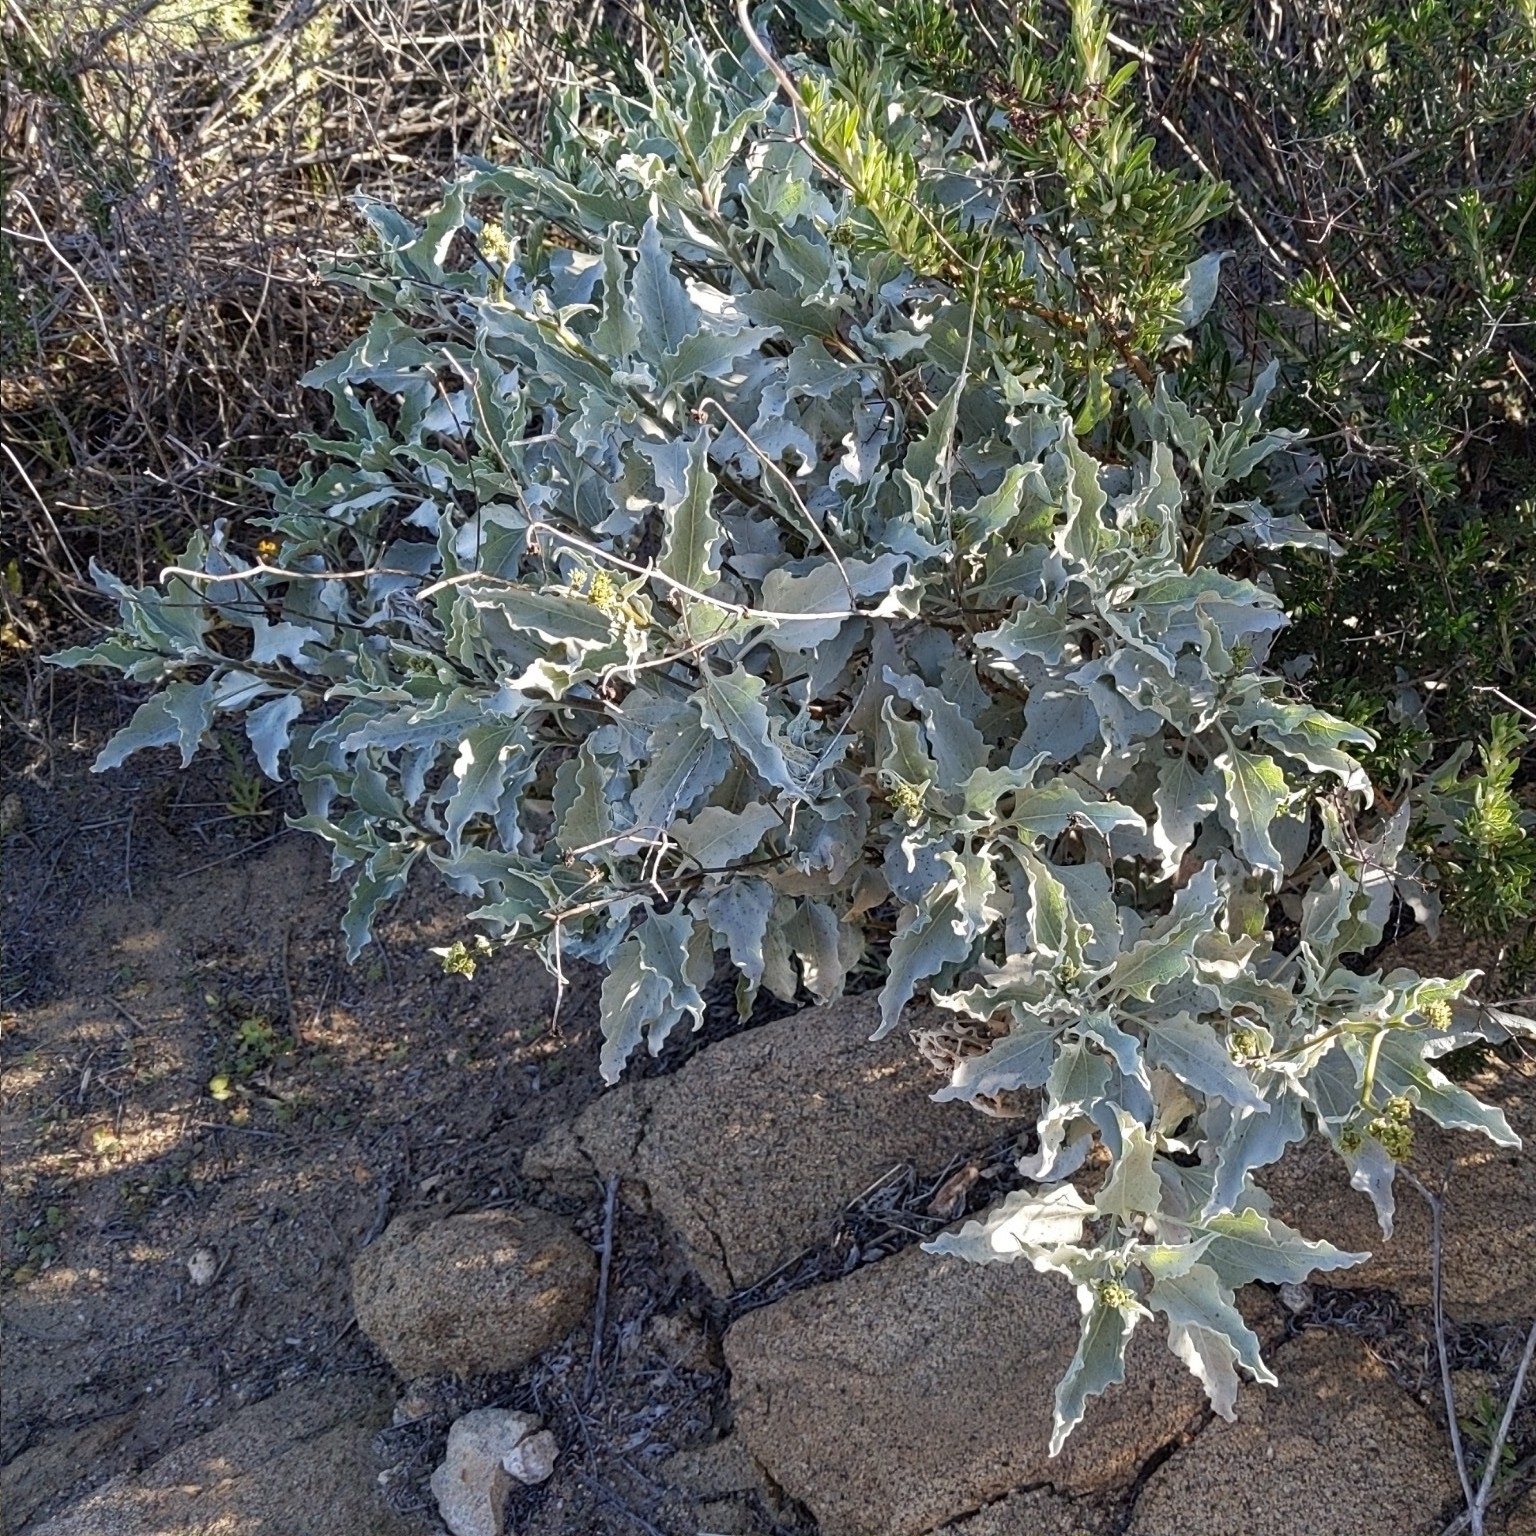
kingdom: Plantae
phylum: Tracheophyta
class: Magnoliopsida
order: Asterales
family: Asteraceae
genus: Encelia
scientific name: Encelia farinosa
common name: Brittlebush
